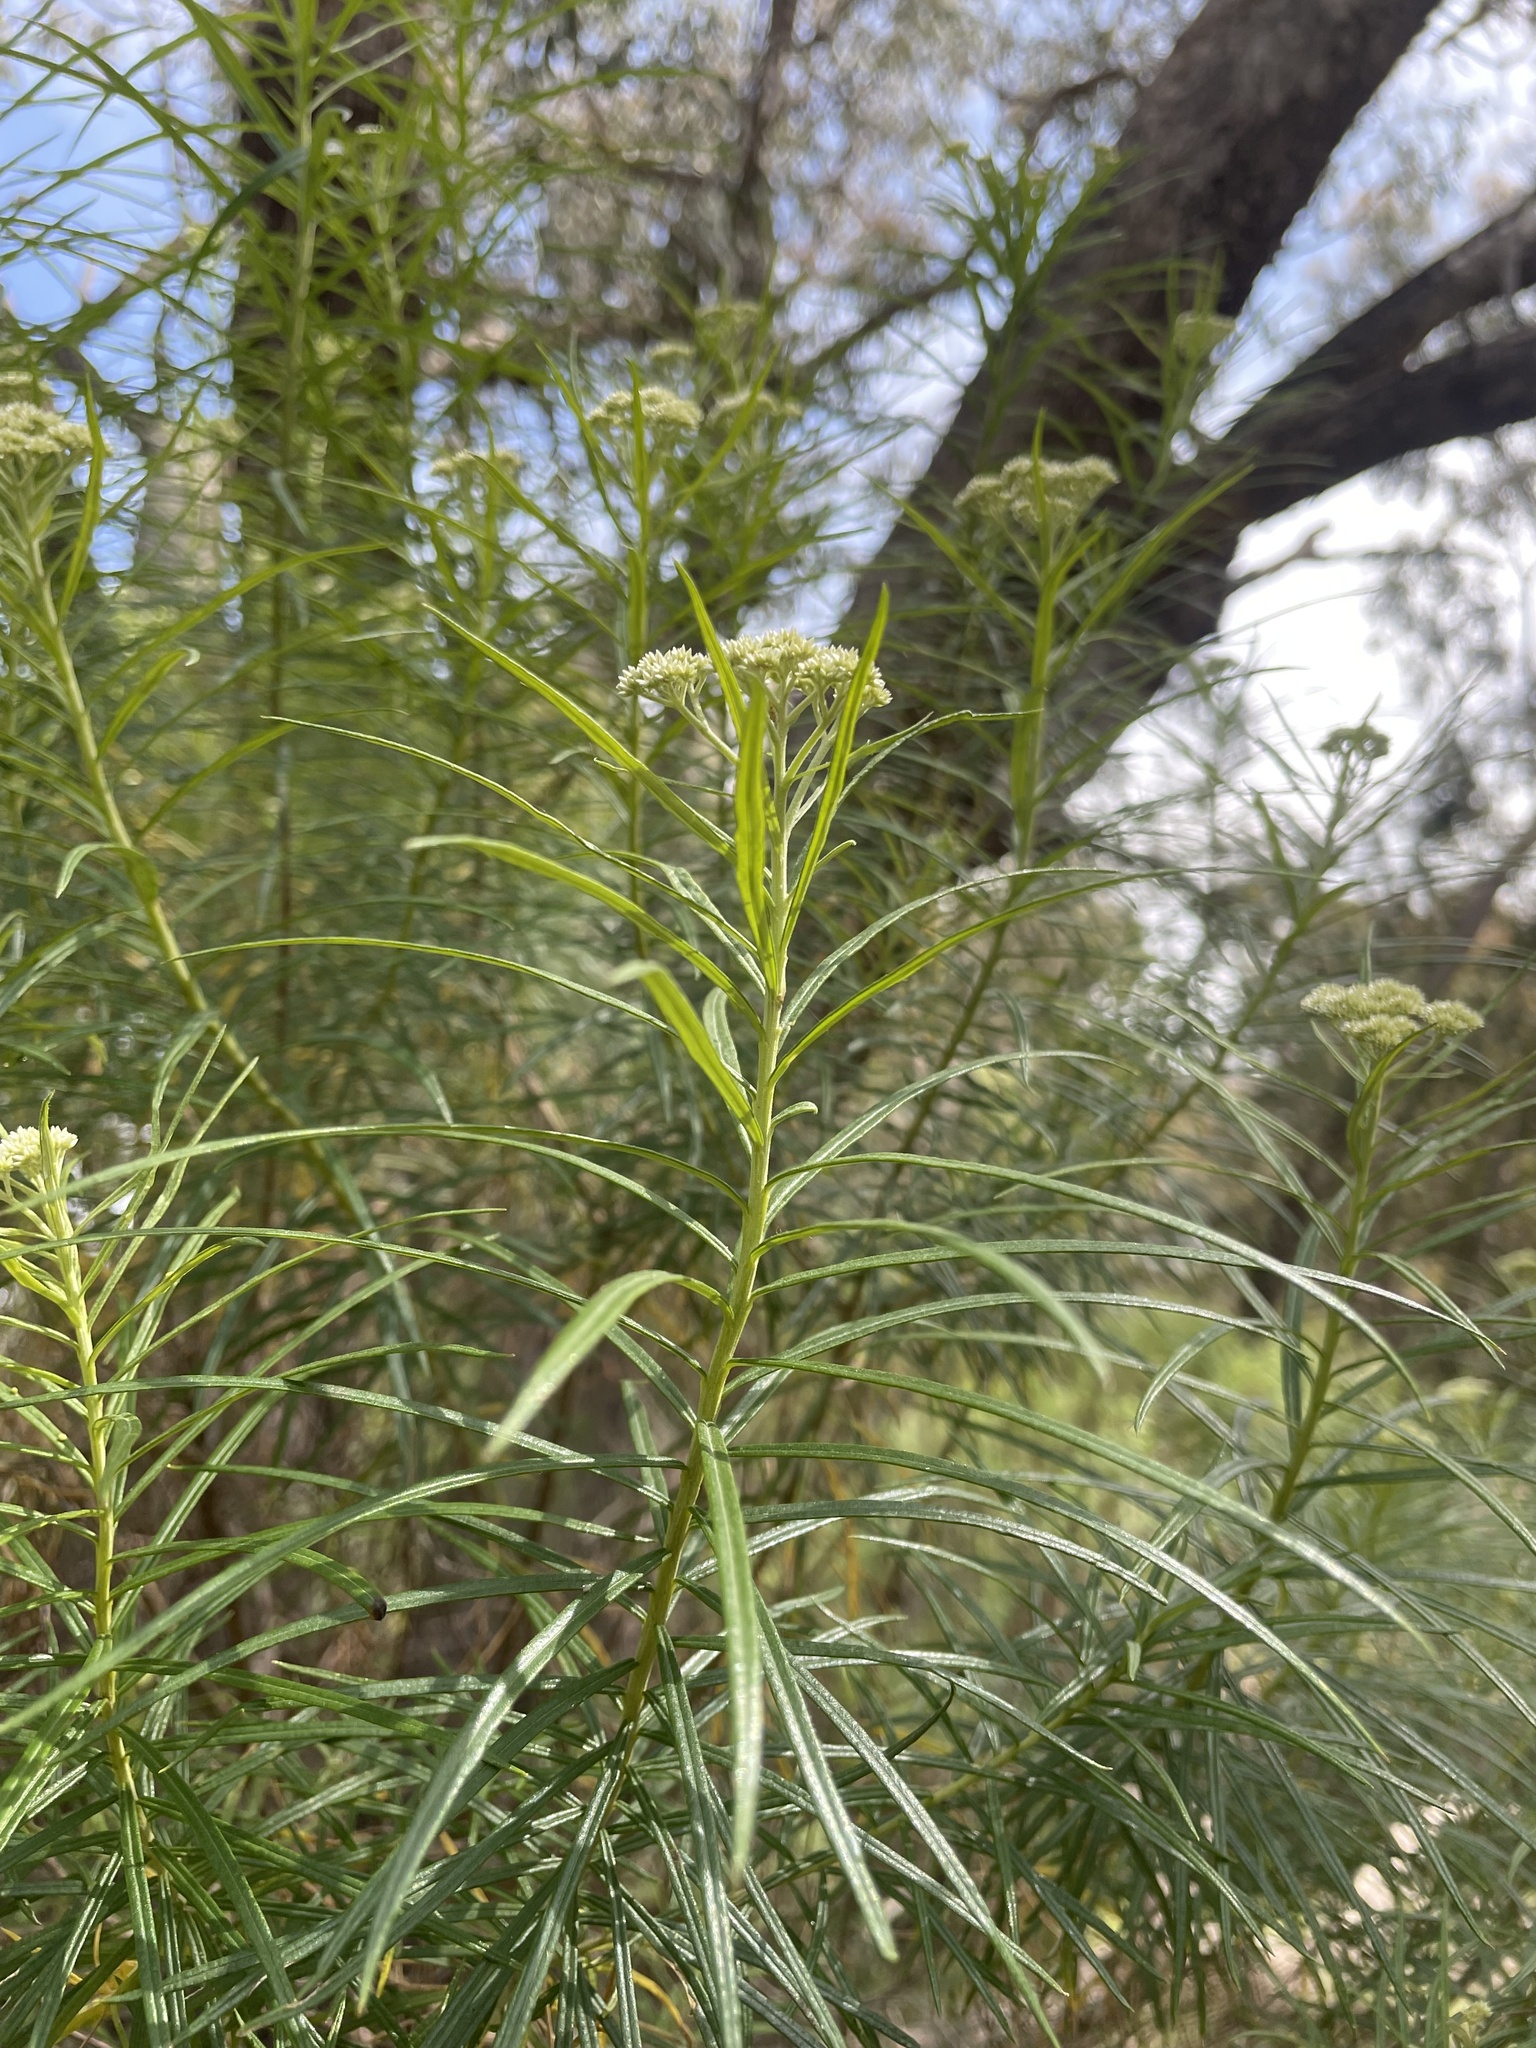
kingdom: Plantae
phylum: Tracheophyta
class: Magnoliopsida
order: Asterales
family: Asteraceae
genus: Cassinia
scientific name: Cassinia longifolia
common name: Longleaf-dogwood
